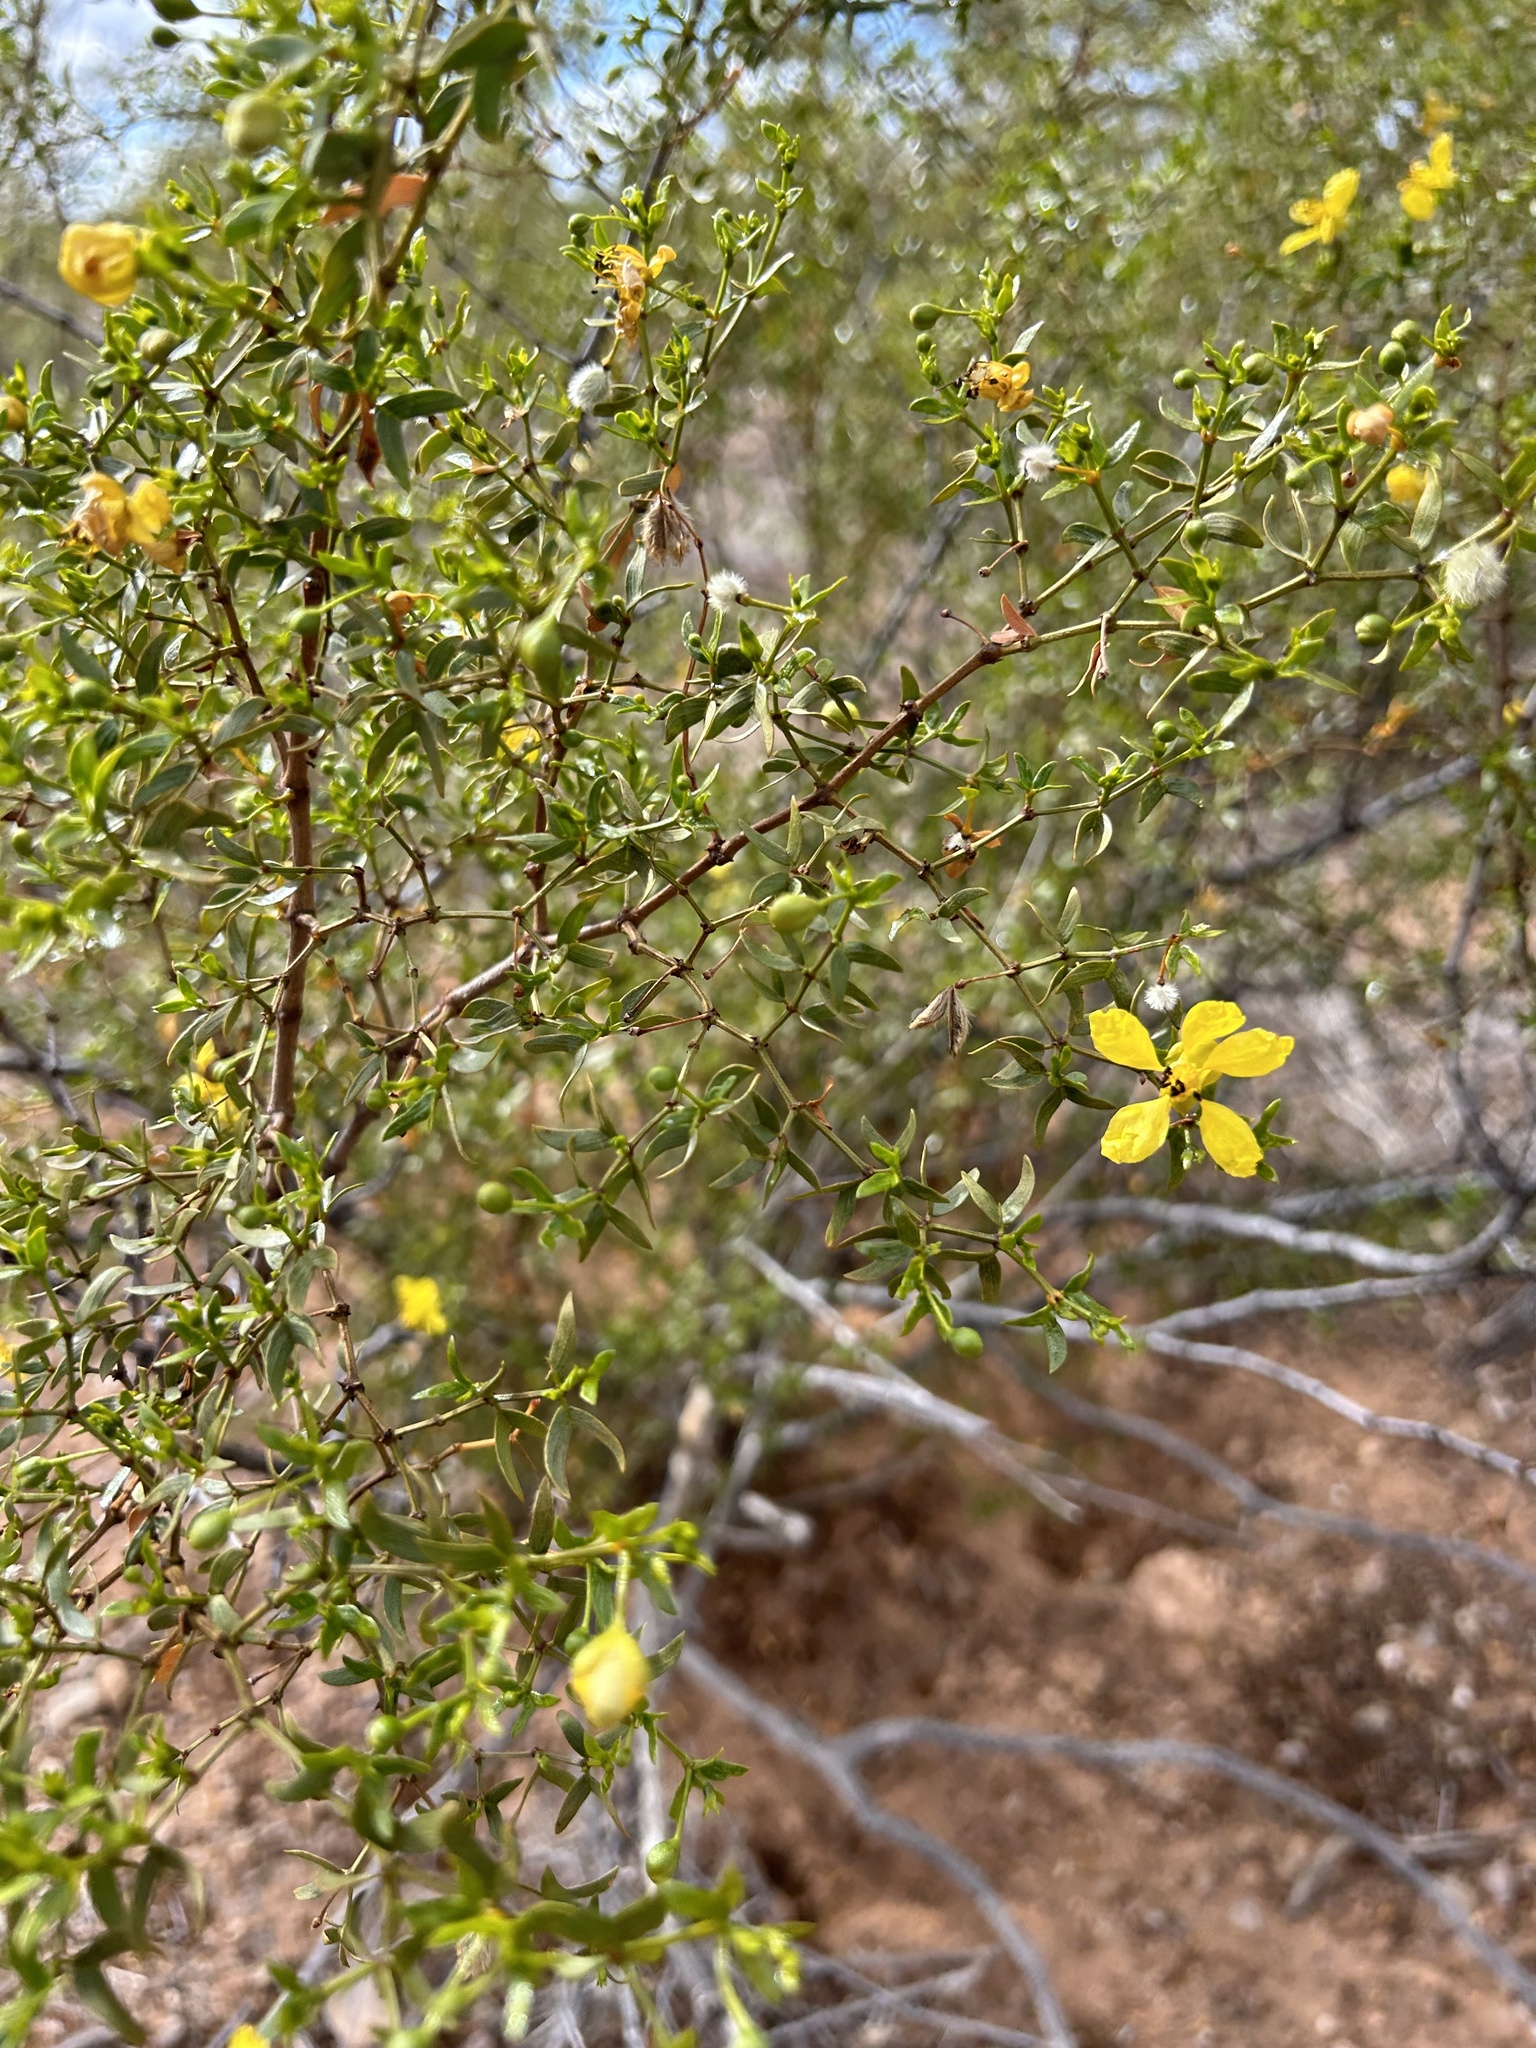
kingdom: Plantae
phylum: Tracheophyta
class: Magnoliopsida
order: Zygophyllales
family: Zygophyllaceae
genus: Larrea
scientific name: Larrea tridentata
